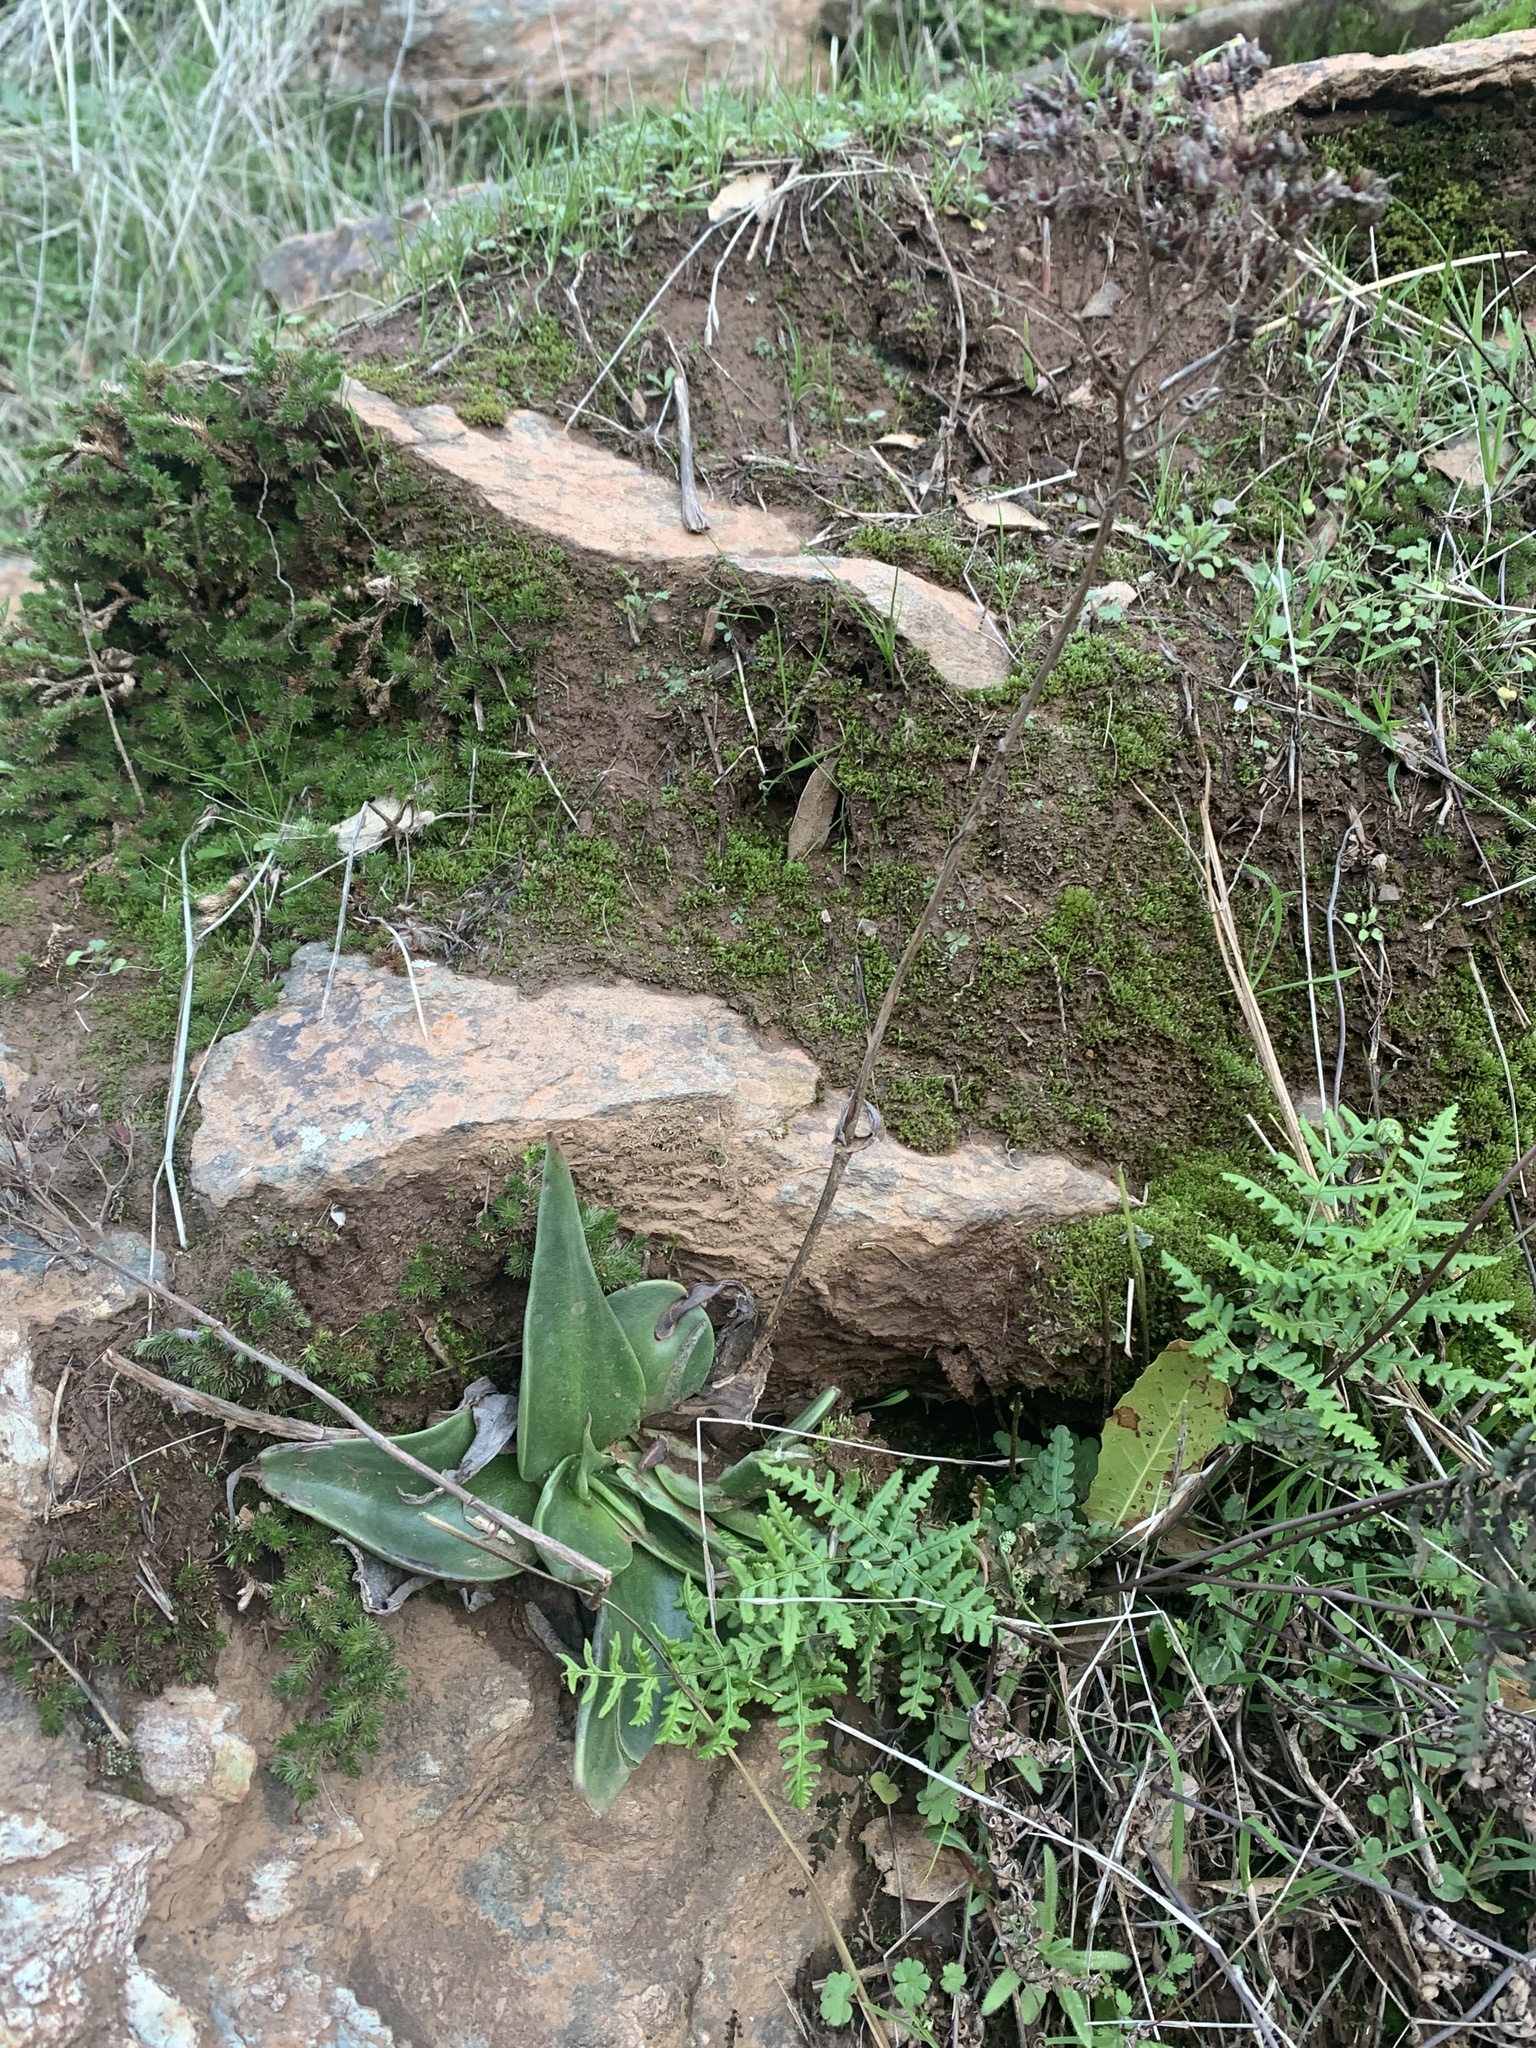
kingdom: Plantae
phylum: Tracheophyta
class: Magnoliopsida
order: Saxifragales
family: Crassulaceae
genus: Dudleya
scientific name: Dudleya cymosa
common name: Canyon dudleya
